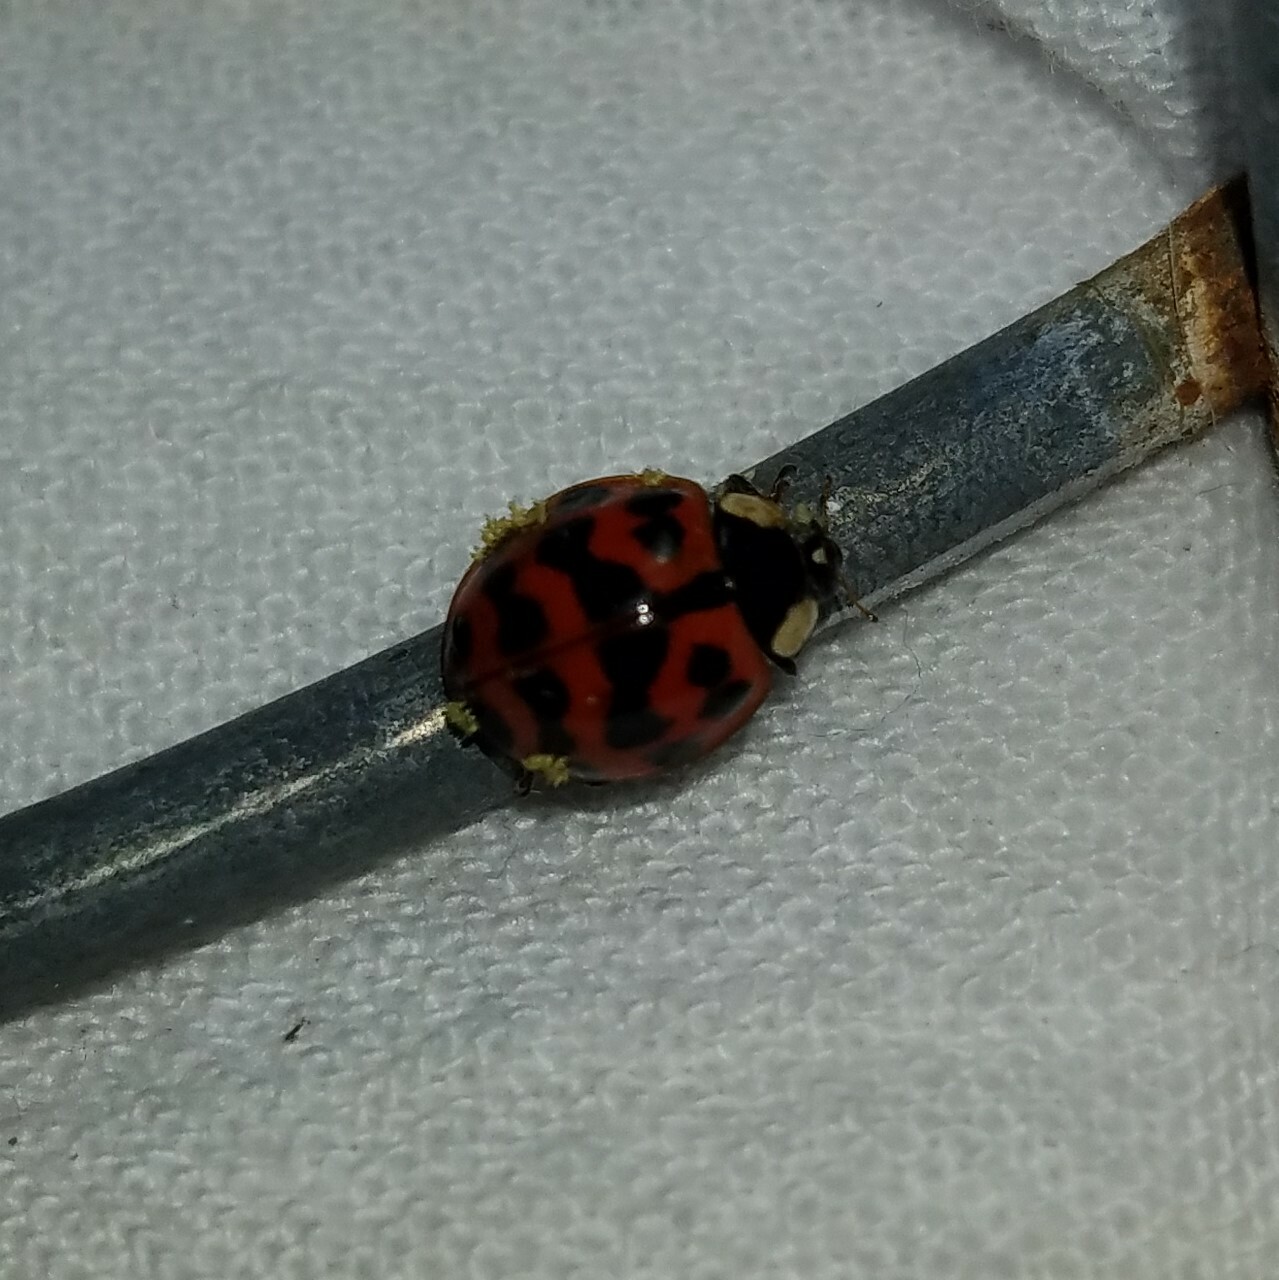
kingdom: Animalia
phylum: Arthropoda
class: Insecta
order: Coleoptera
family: Coccinellidae
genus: Harmonia
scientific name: Harmonia axyridis
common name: Harlequin ladybird
